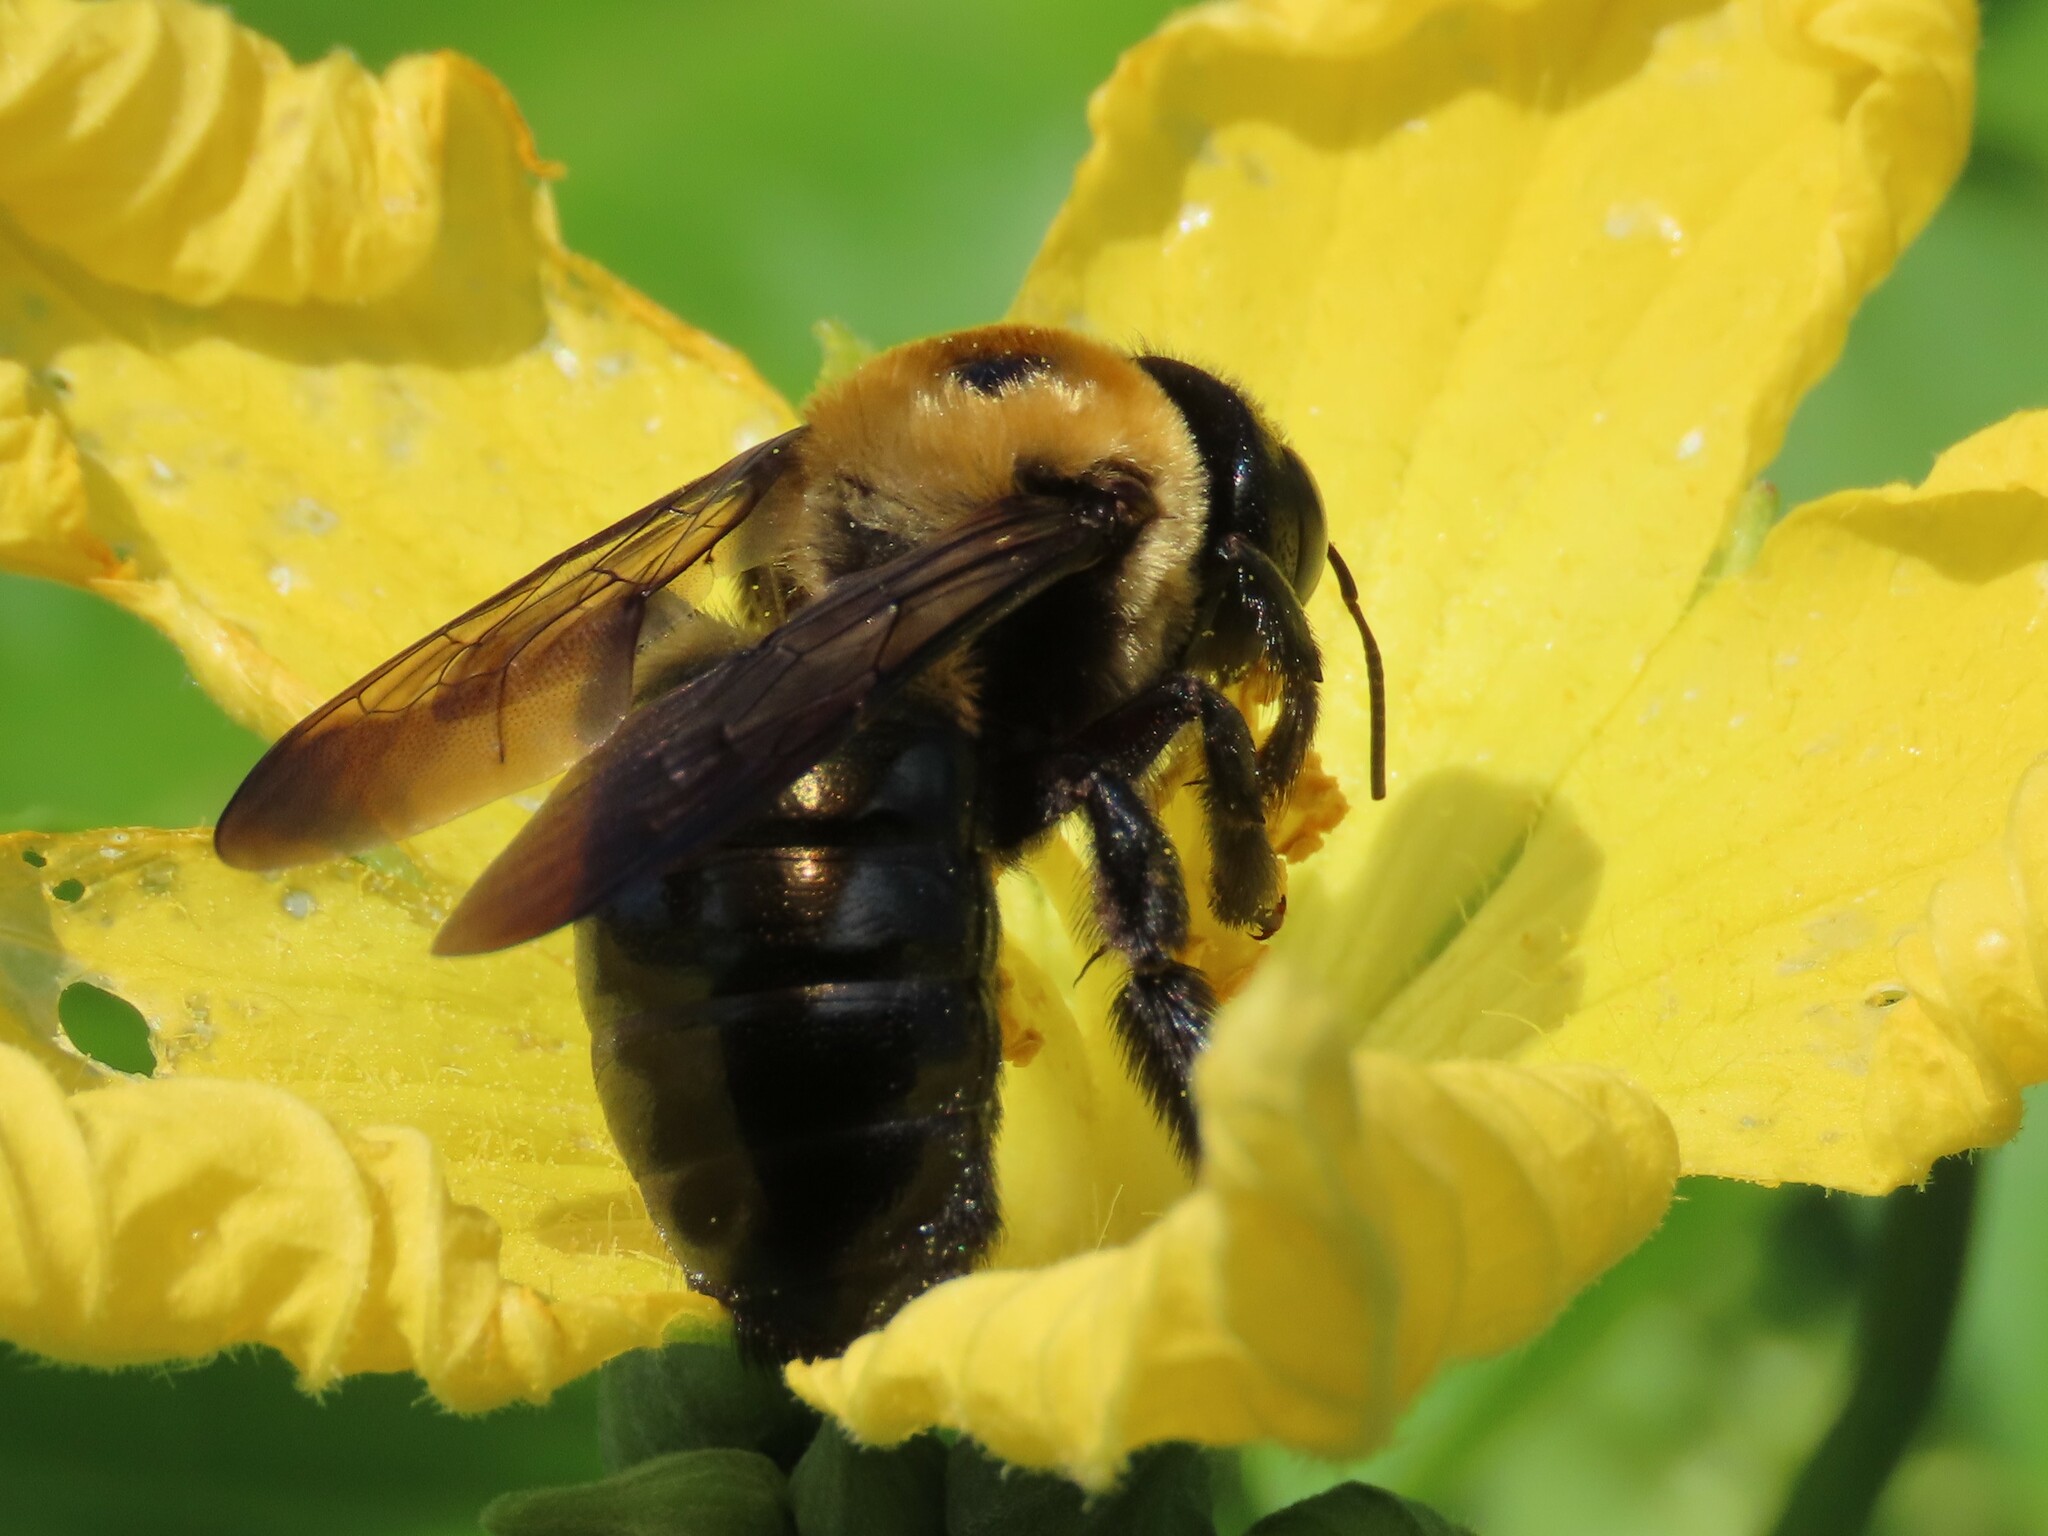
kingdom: Animalia
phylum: Arthropoda
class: Insecta
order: Hymenoptera
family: Apidae
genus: Xylocopa
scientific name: Xylocopa virginica
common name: Carpenter bee
